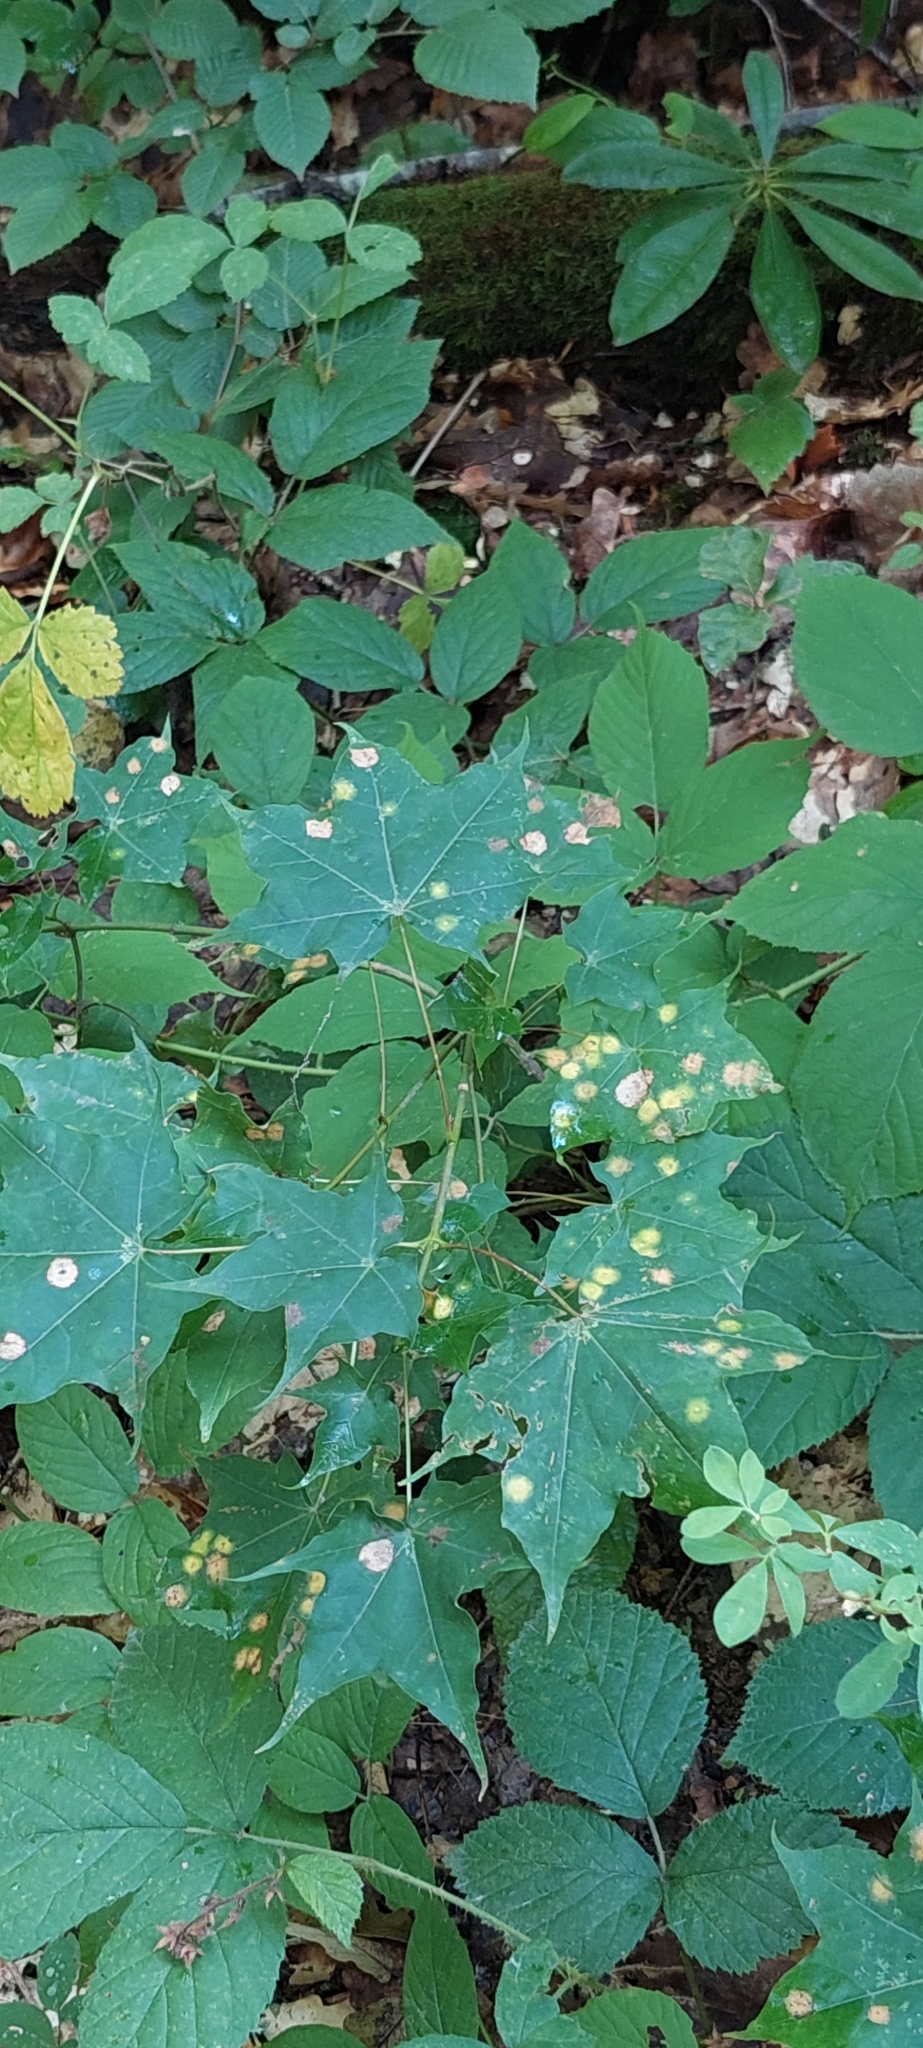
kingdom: Plantae
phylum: Tracheophyta
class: Magnoliopsida
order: Sapindales
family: Sapindaceae
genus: Acer
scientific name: Acer platanoides
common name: Norway maple
